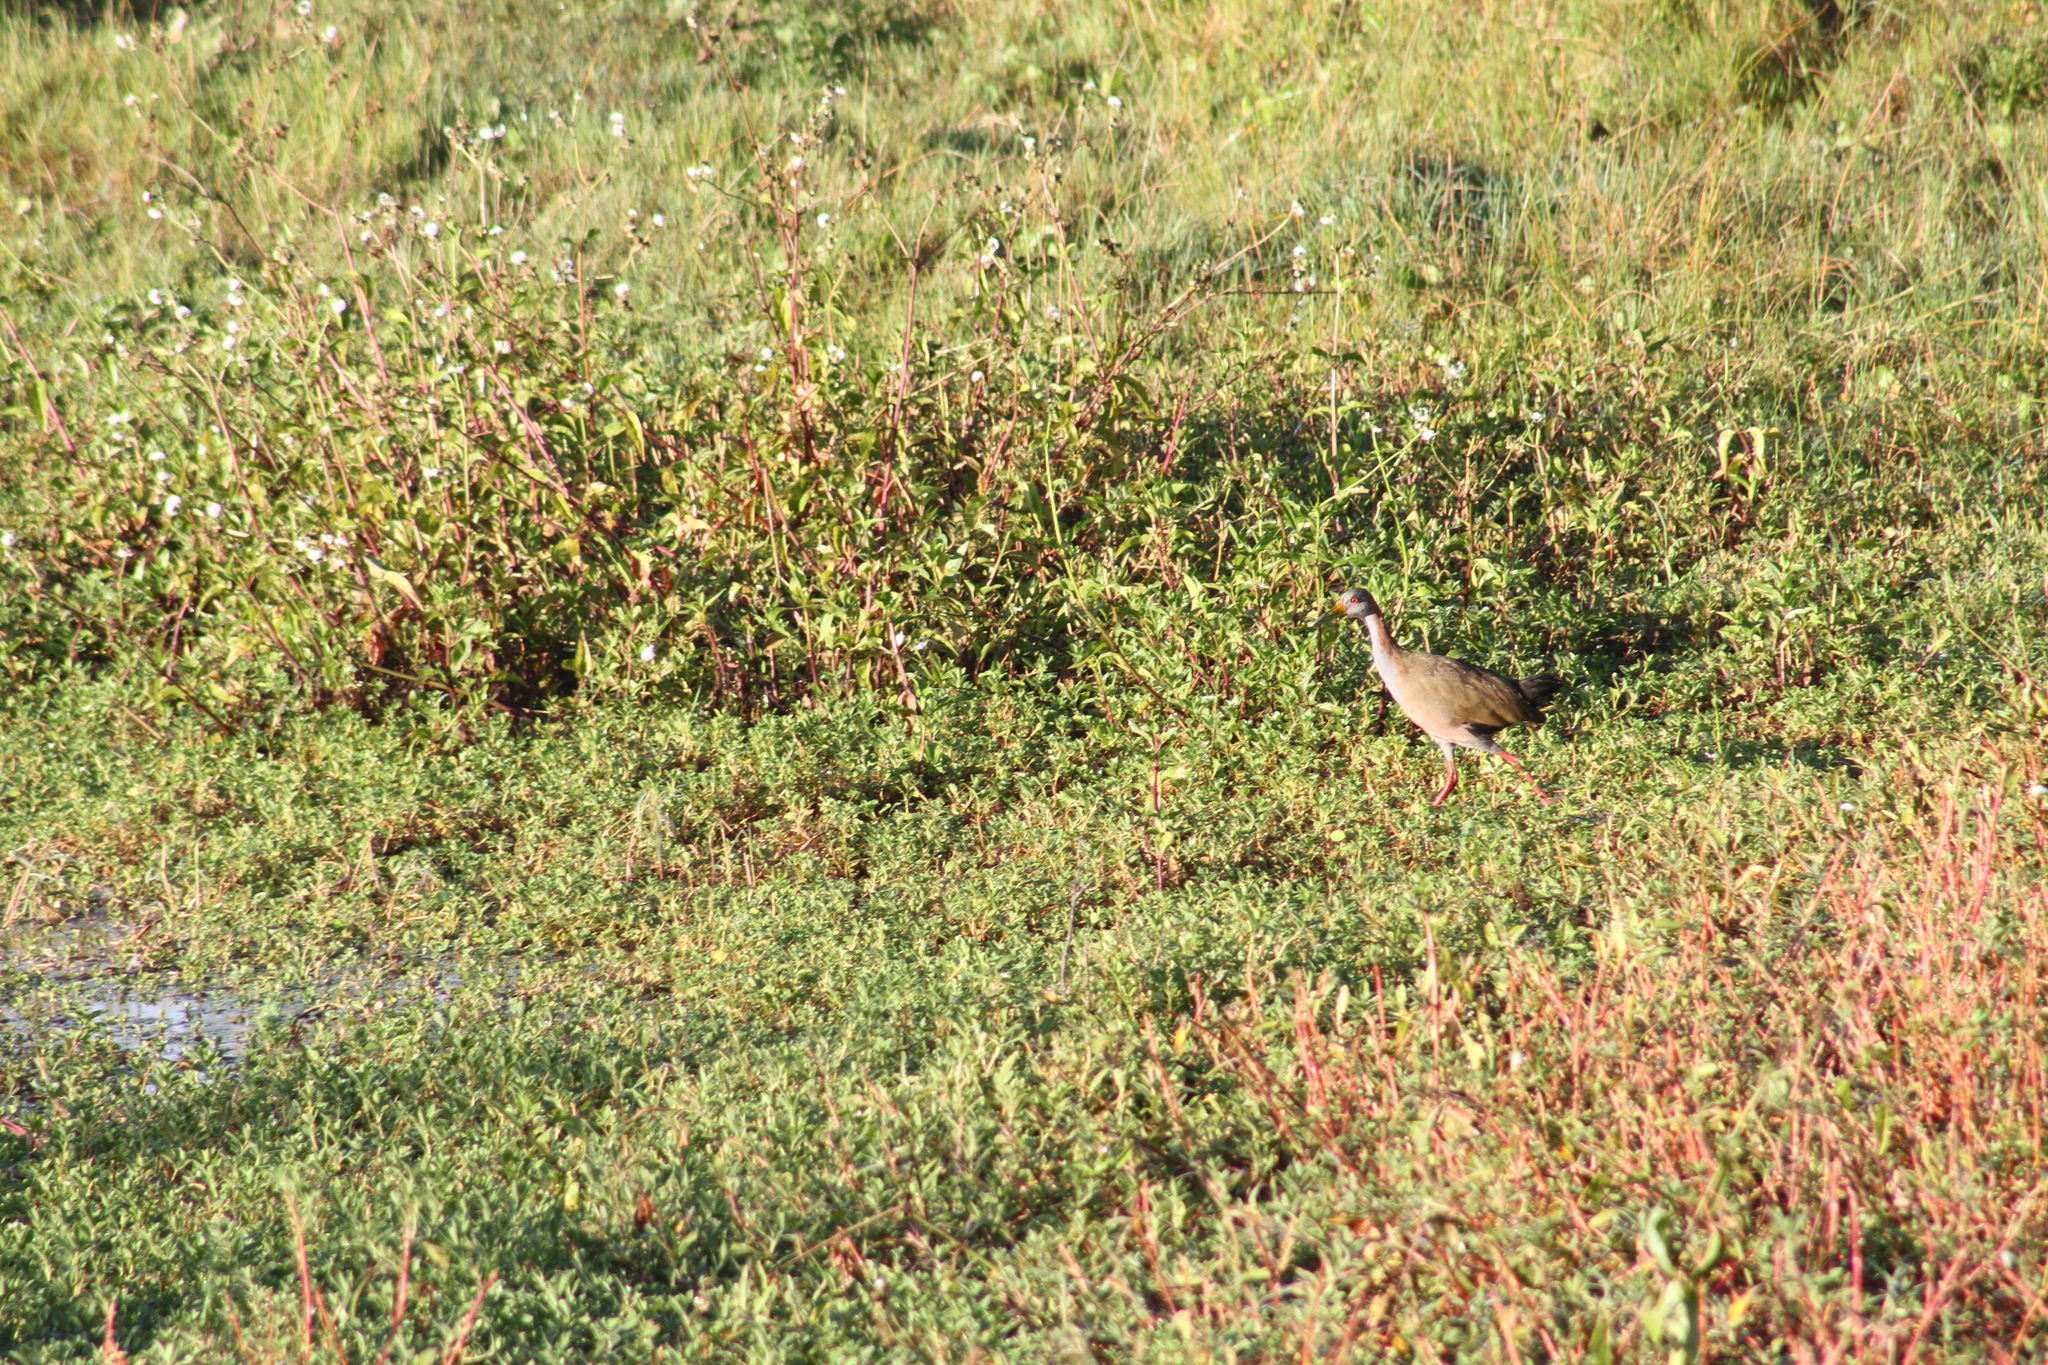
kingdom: Animalia
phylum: Chordata
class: Aves
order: Gruiformes
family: Rallidae
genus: Aramides
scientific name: Aramides ypecaha
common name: Giant wood rail
